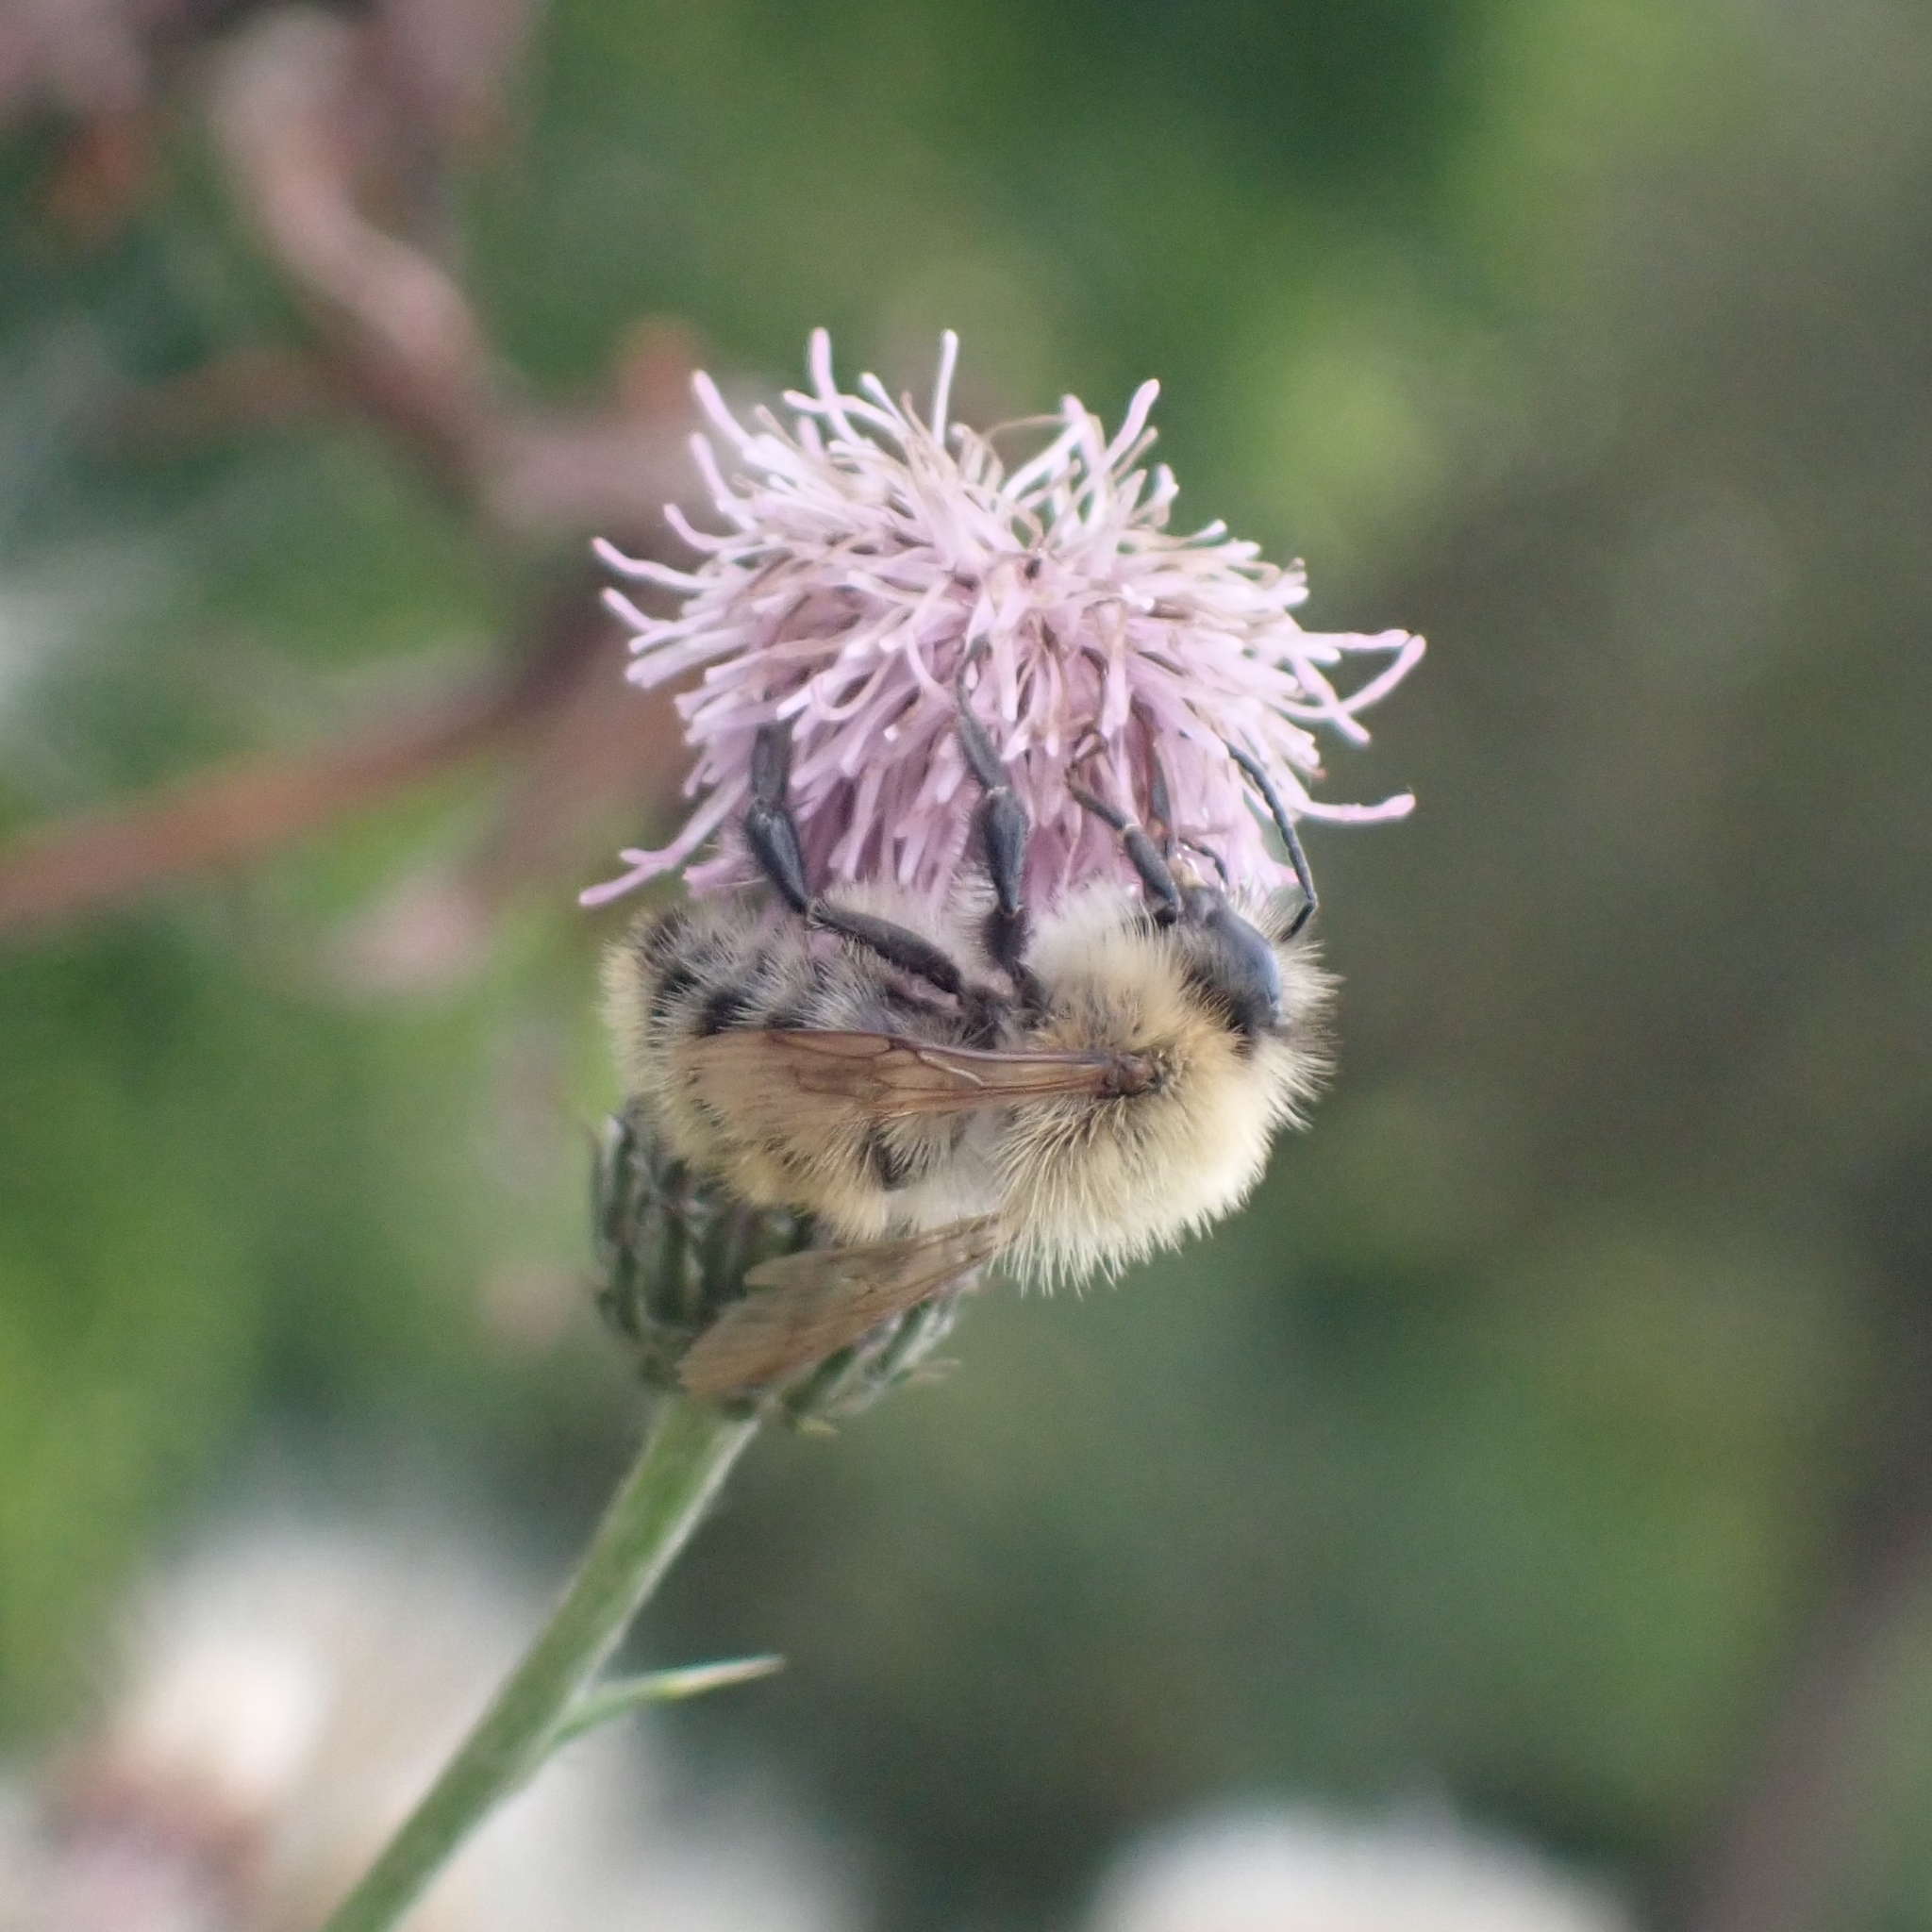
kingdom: Animalia
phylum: Arthropoda
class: Insecta
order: Hymenoptera
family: Apidae
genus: Bombus
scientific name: Bombus pascuorum
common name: Common carder bee
